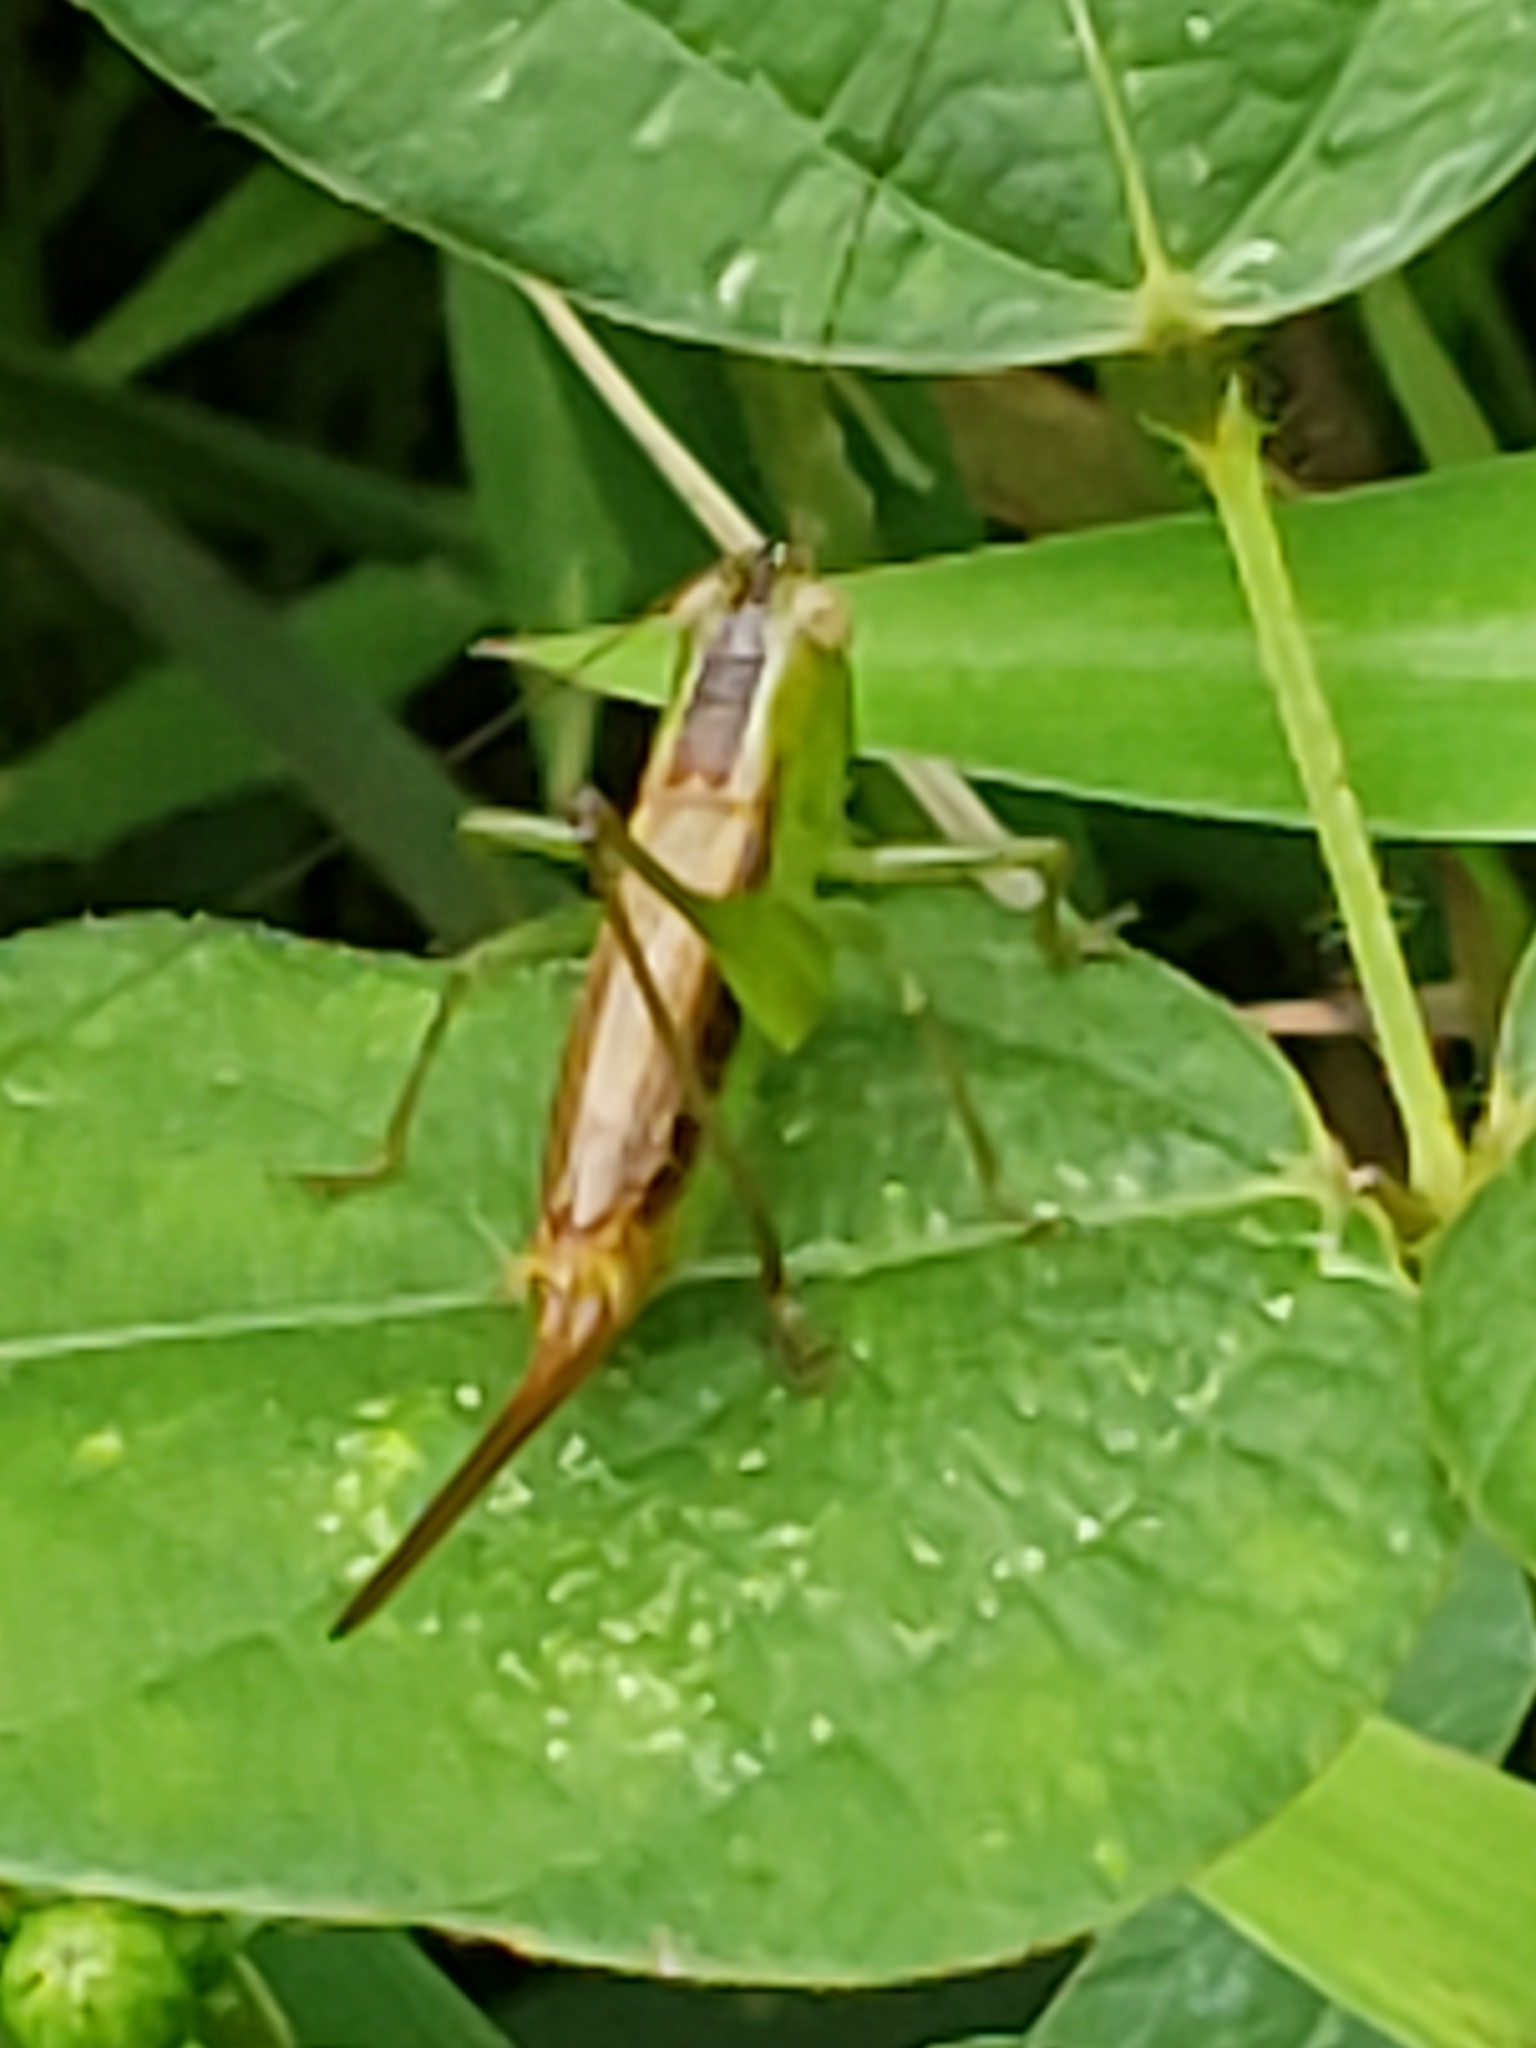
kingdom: Animalia
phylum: Arthropoda
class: Insecta
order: Orthoptera
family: Tettigoniidae
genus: Conocephalus
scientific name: Conocephalus brevipennis
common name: Short-winged meadow katydid
